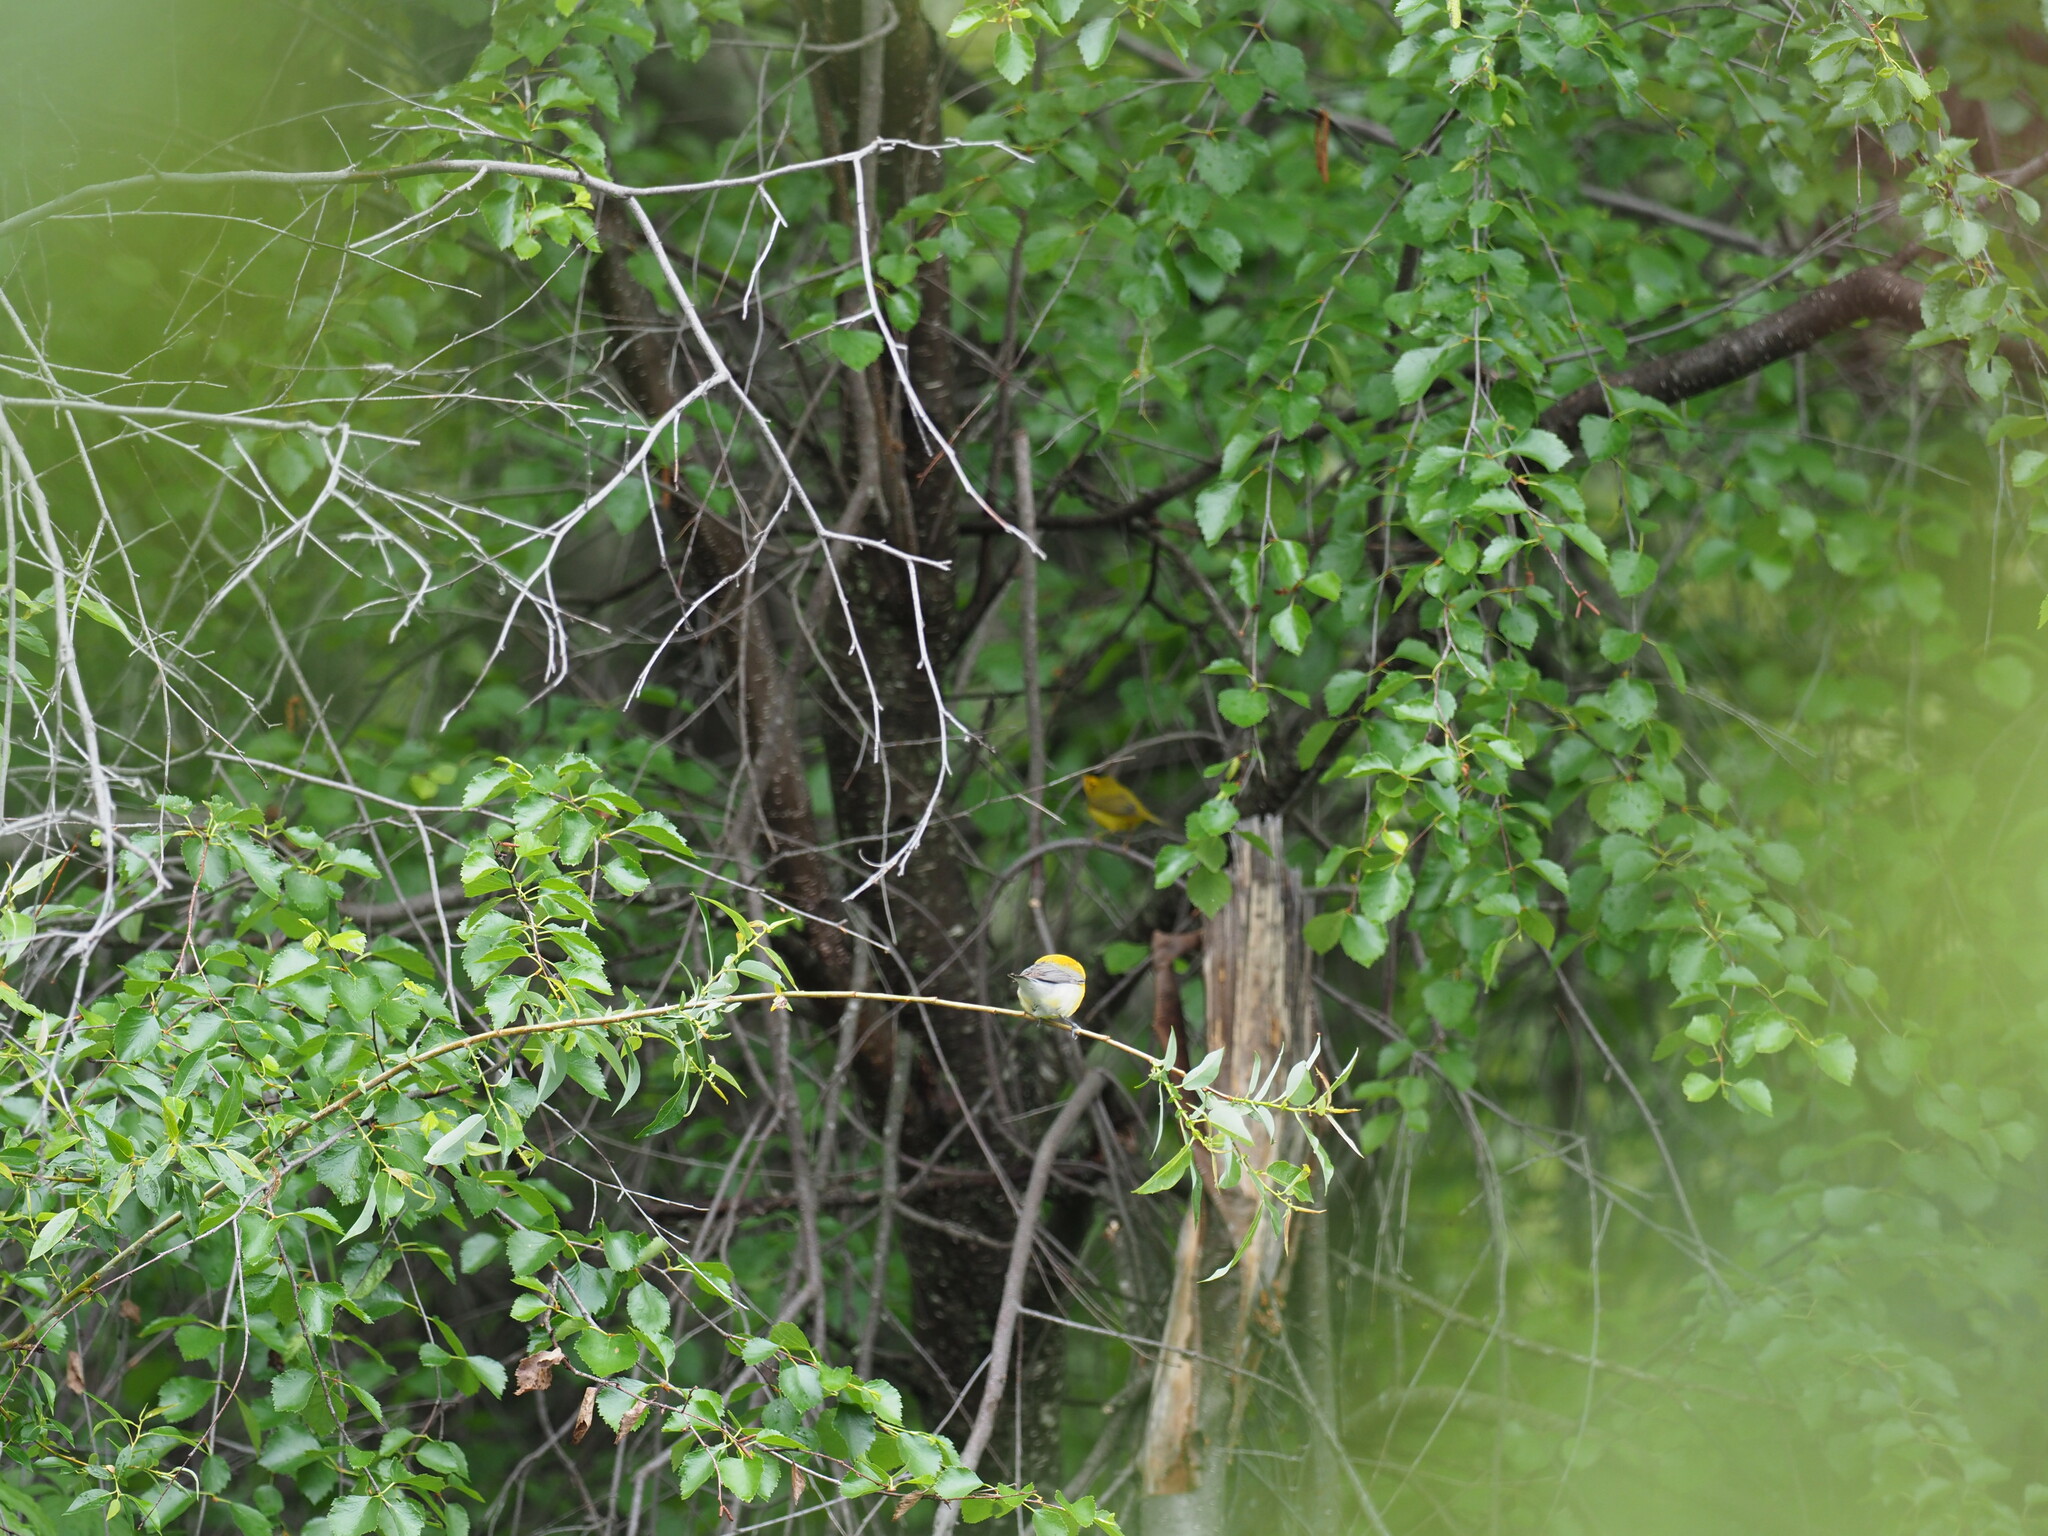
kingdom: Animalia
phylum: Chordata
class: Aves
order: Passeriformes
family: Parulidae
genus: Cardellina
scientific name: Cardellina pusilla
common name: Wilson's warbler
